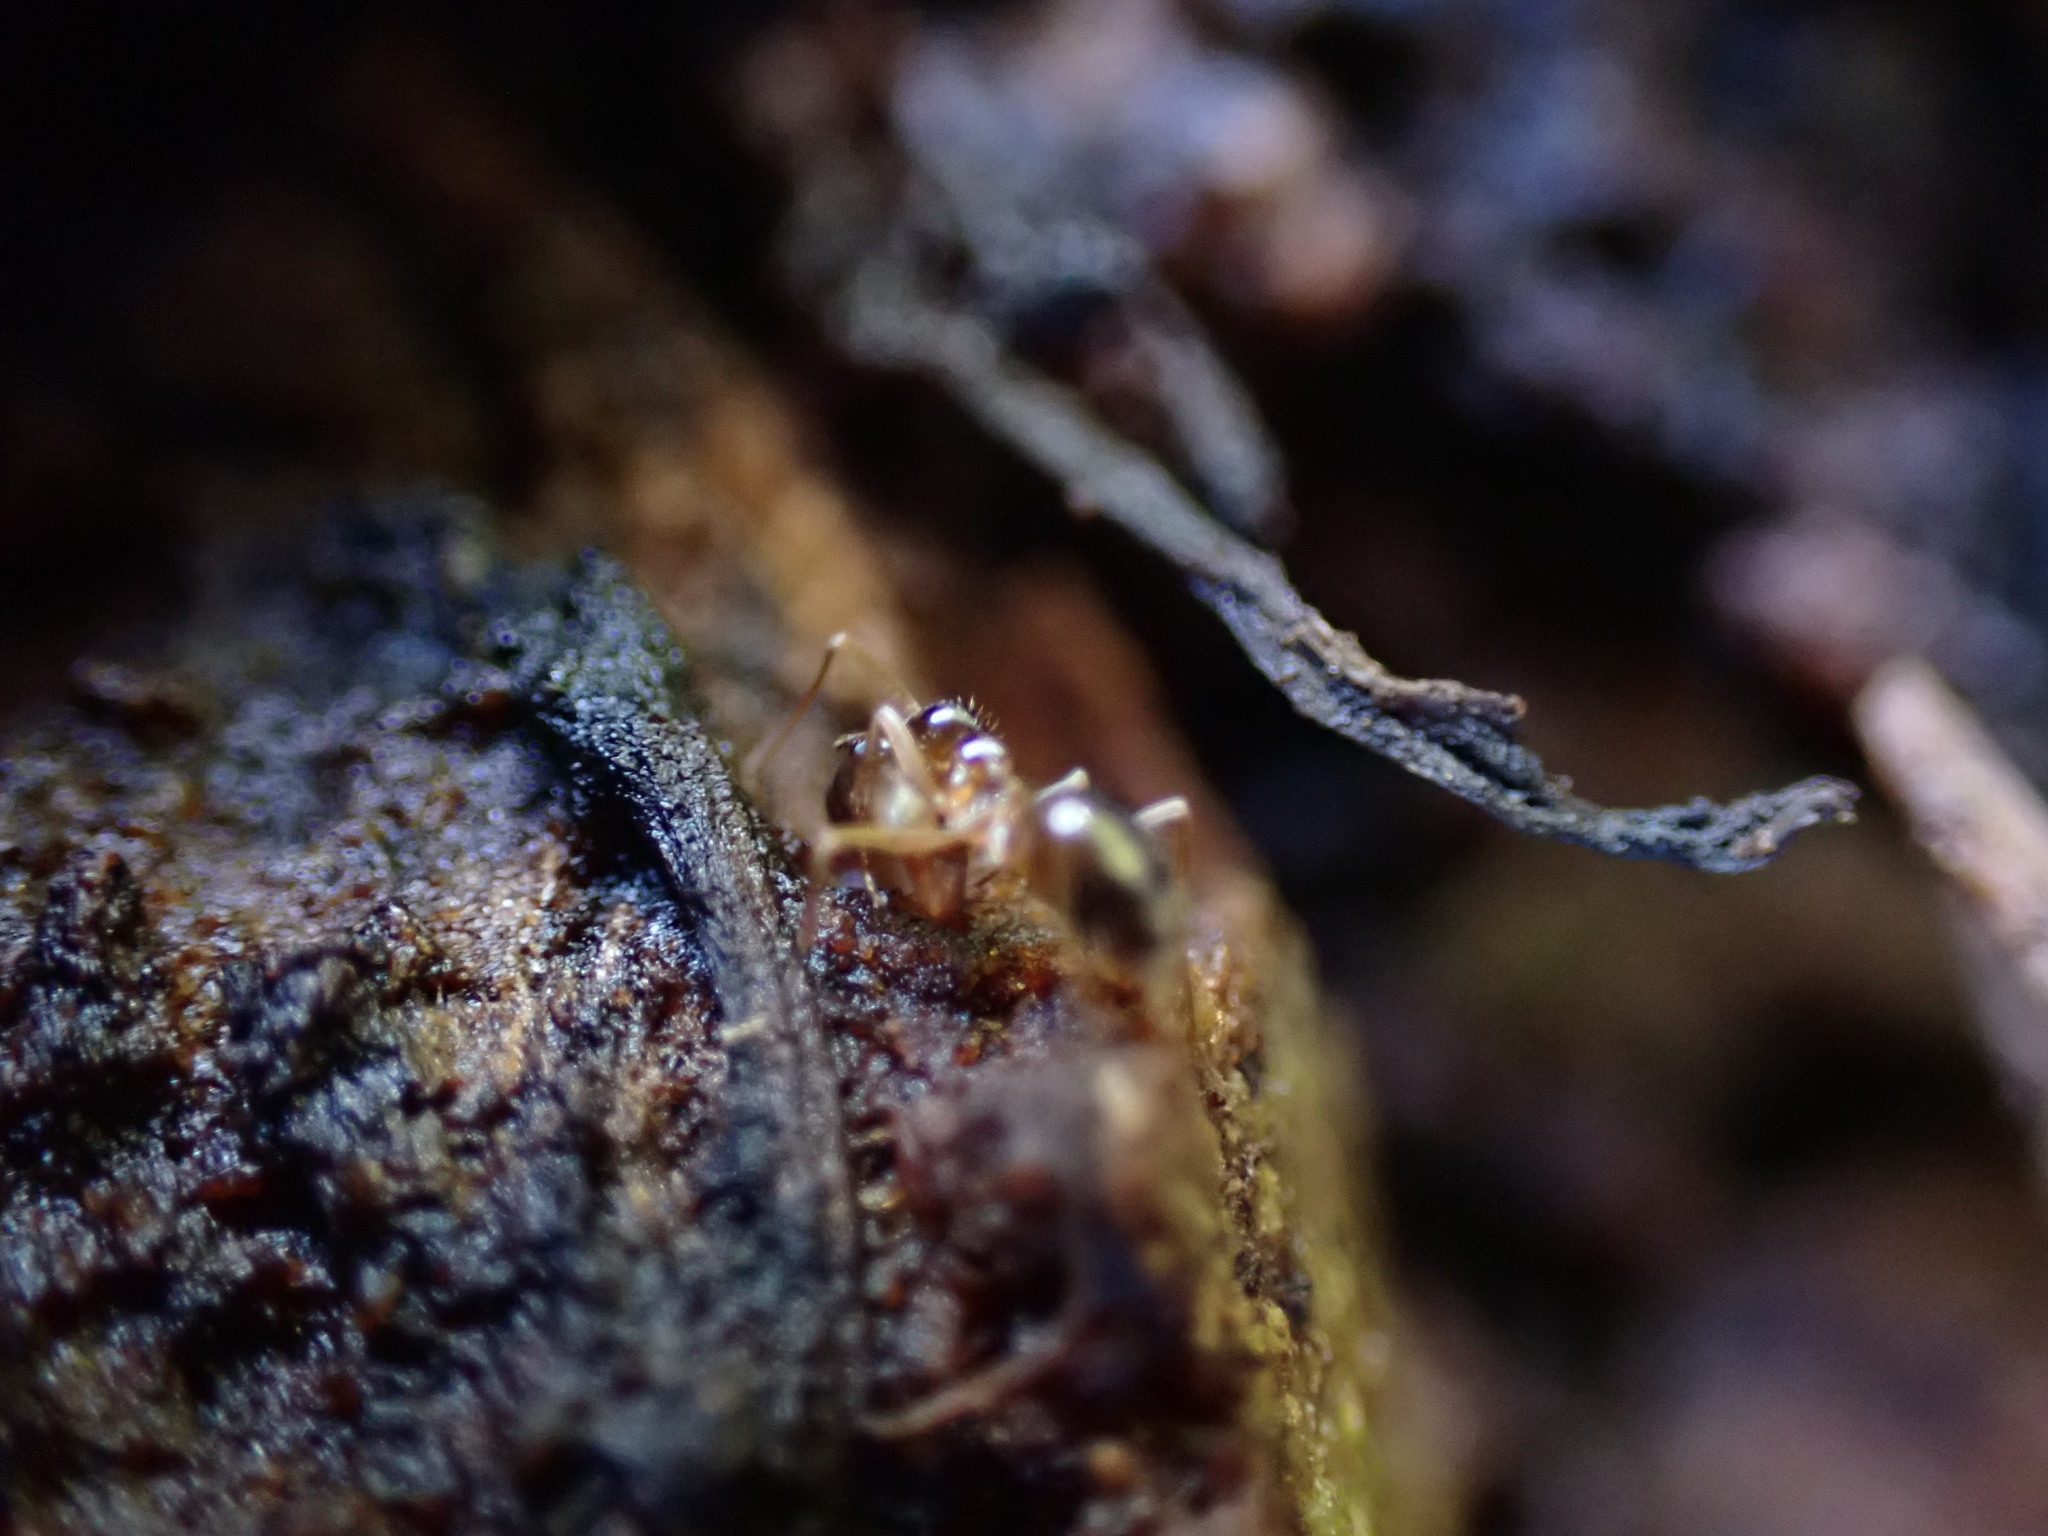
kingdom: Animalia
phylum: Arthropoda
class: Insecta
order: Hymenoptera
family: Formicidae
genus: Prenolepis
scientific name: Prenolepis imparis
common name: Small honey ant
